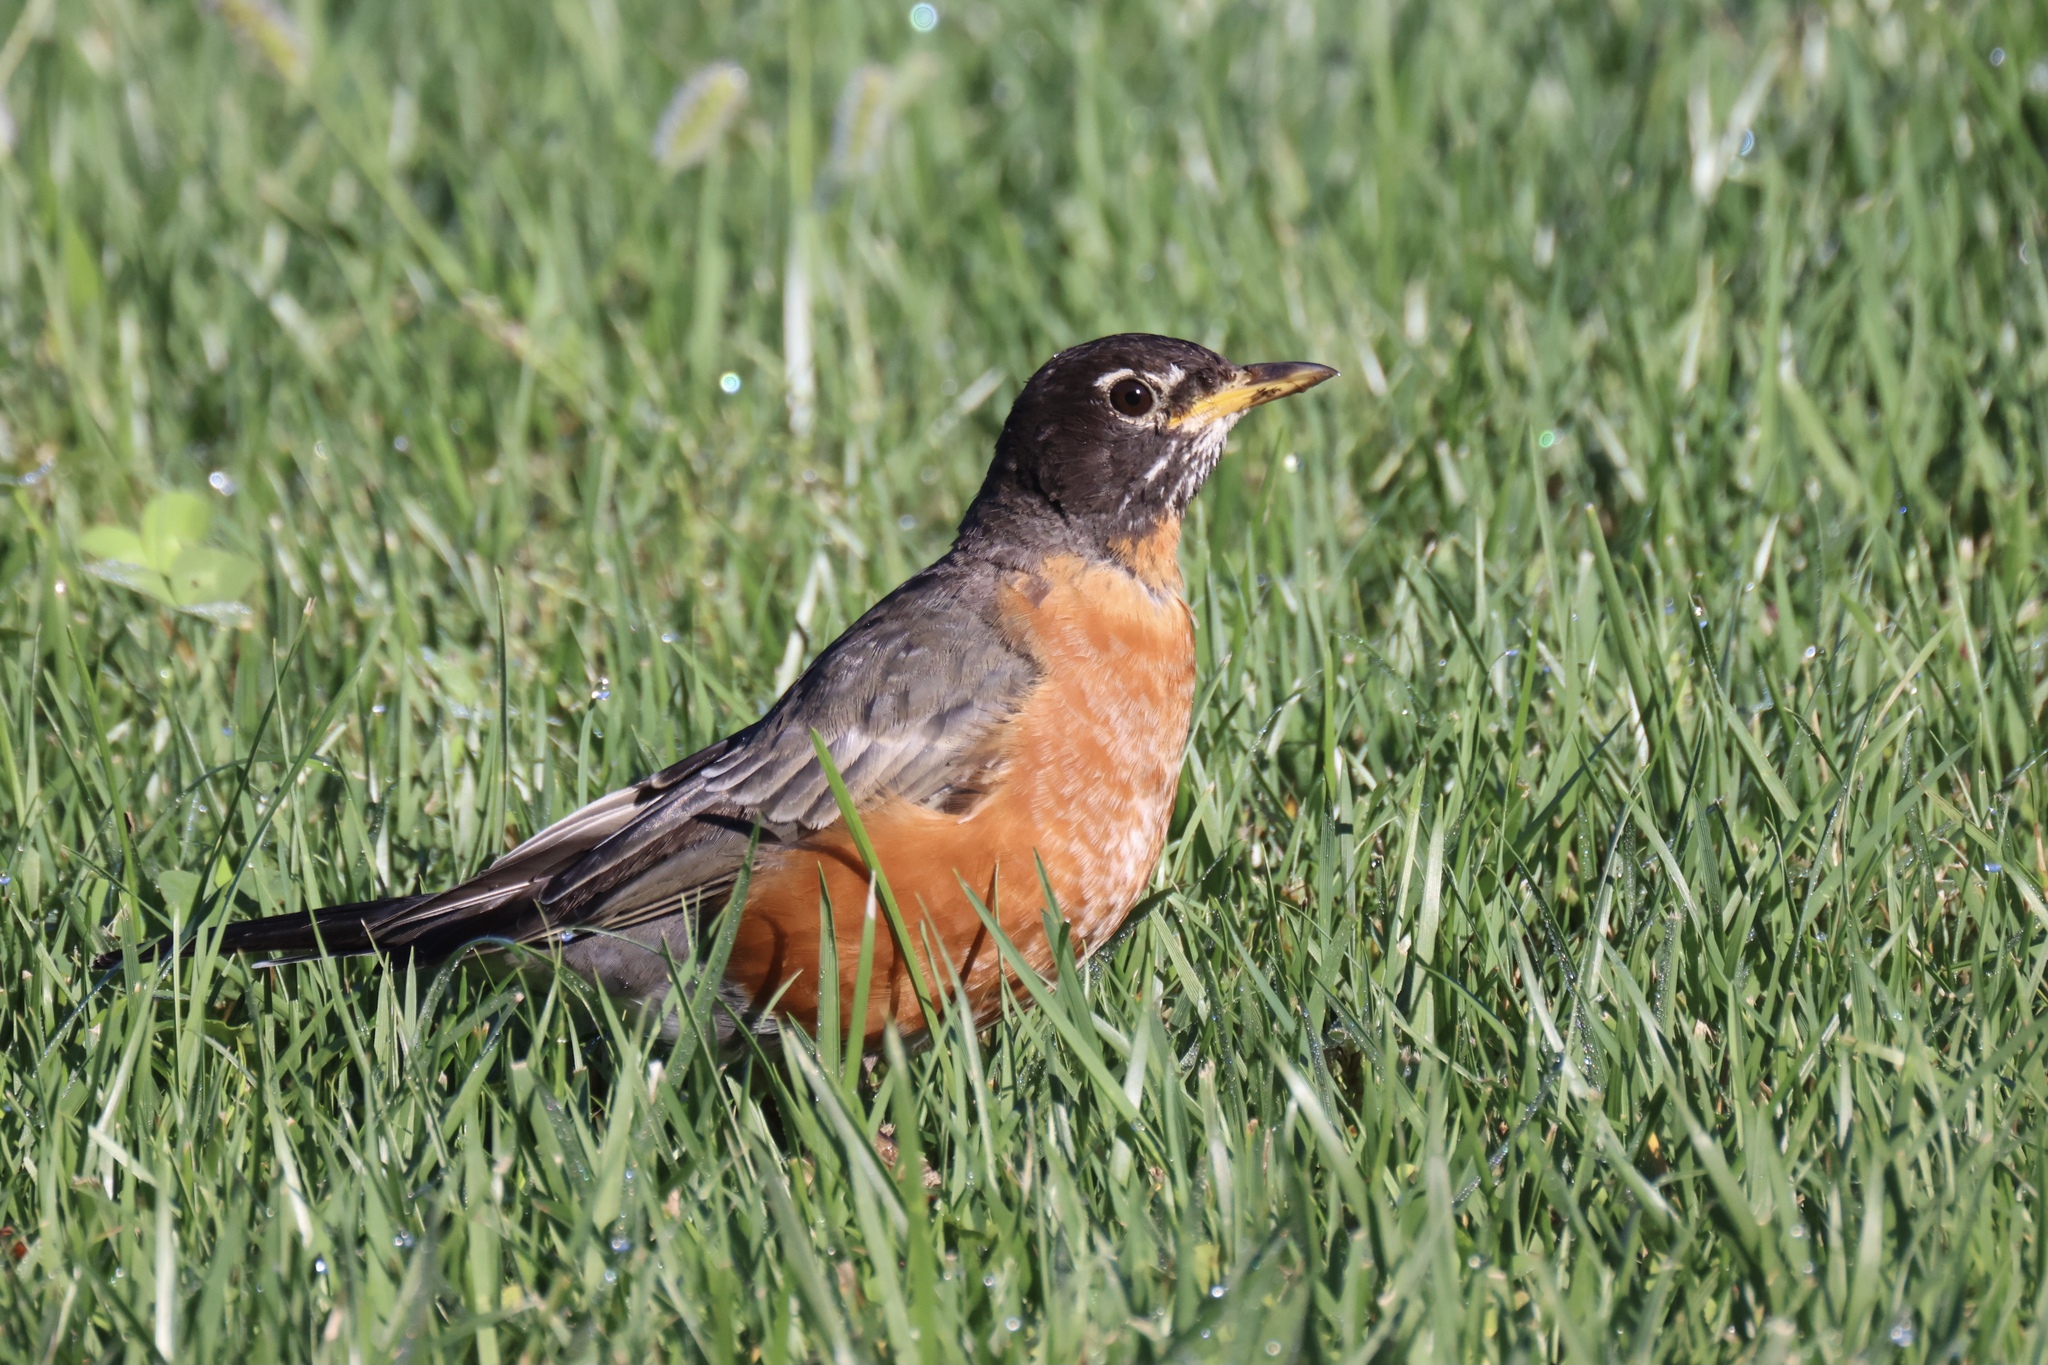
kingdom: Animalia
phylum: Chordata
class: Aves
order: Passeriformes
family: Turdidae
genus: Turdus
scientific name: Turdus migratorius
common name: American robin
